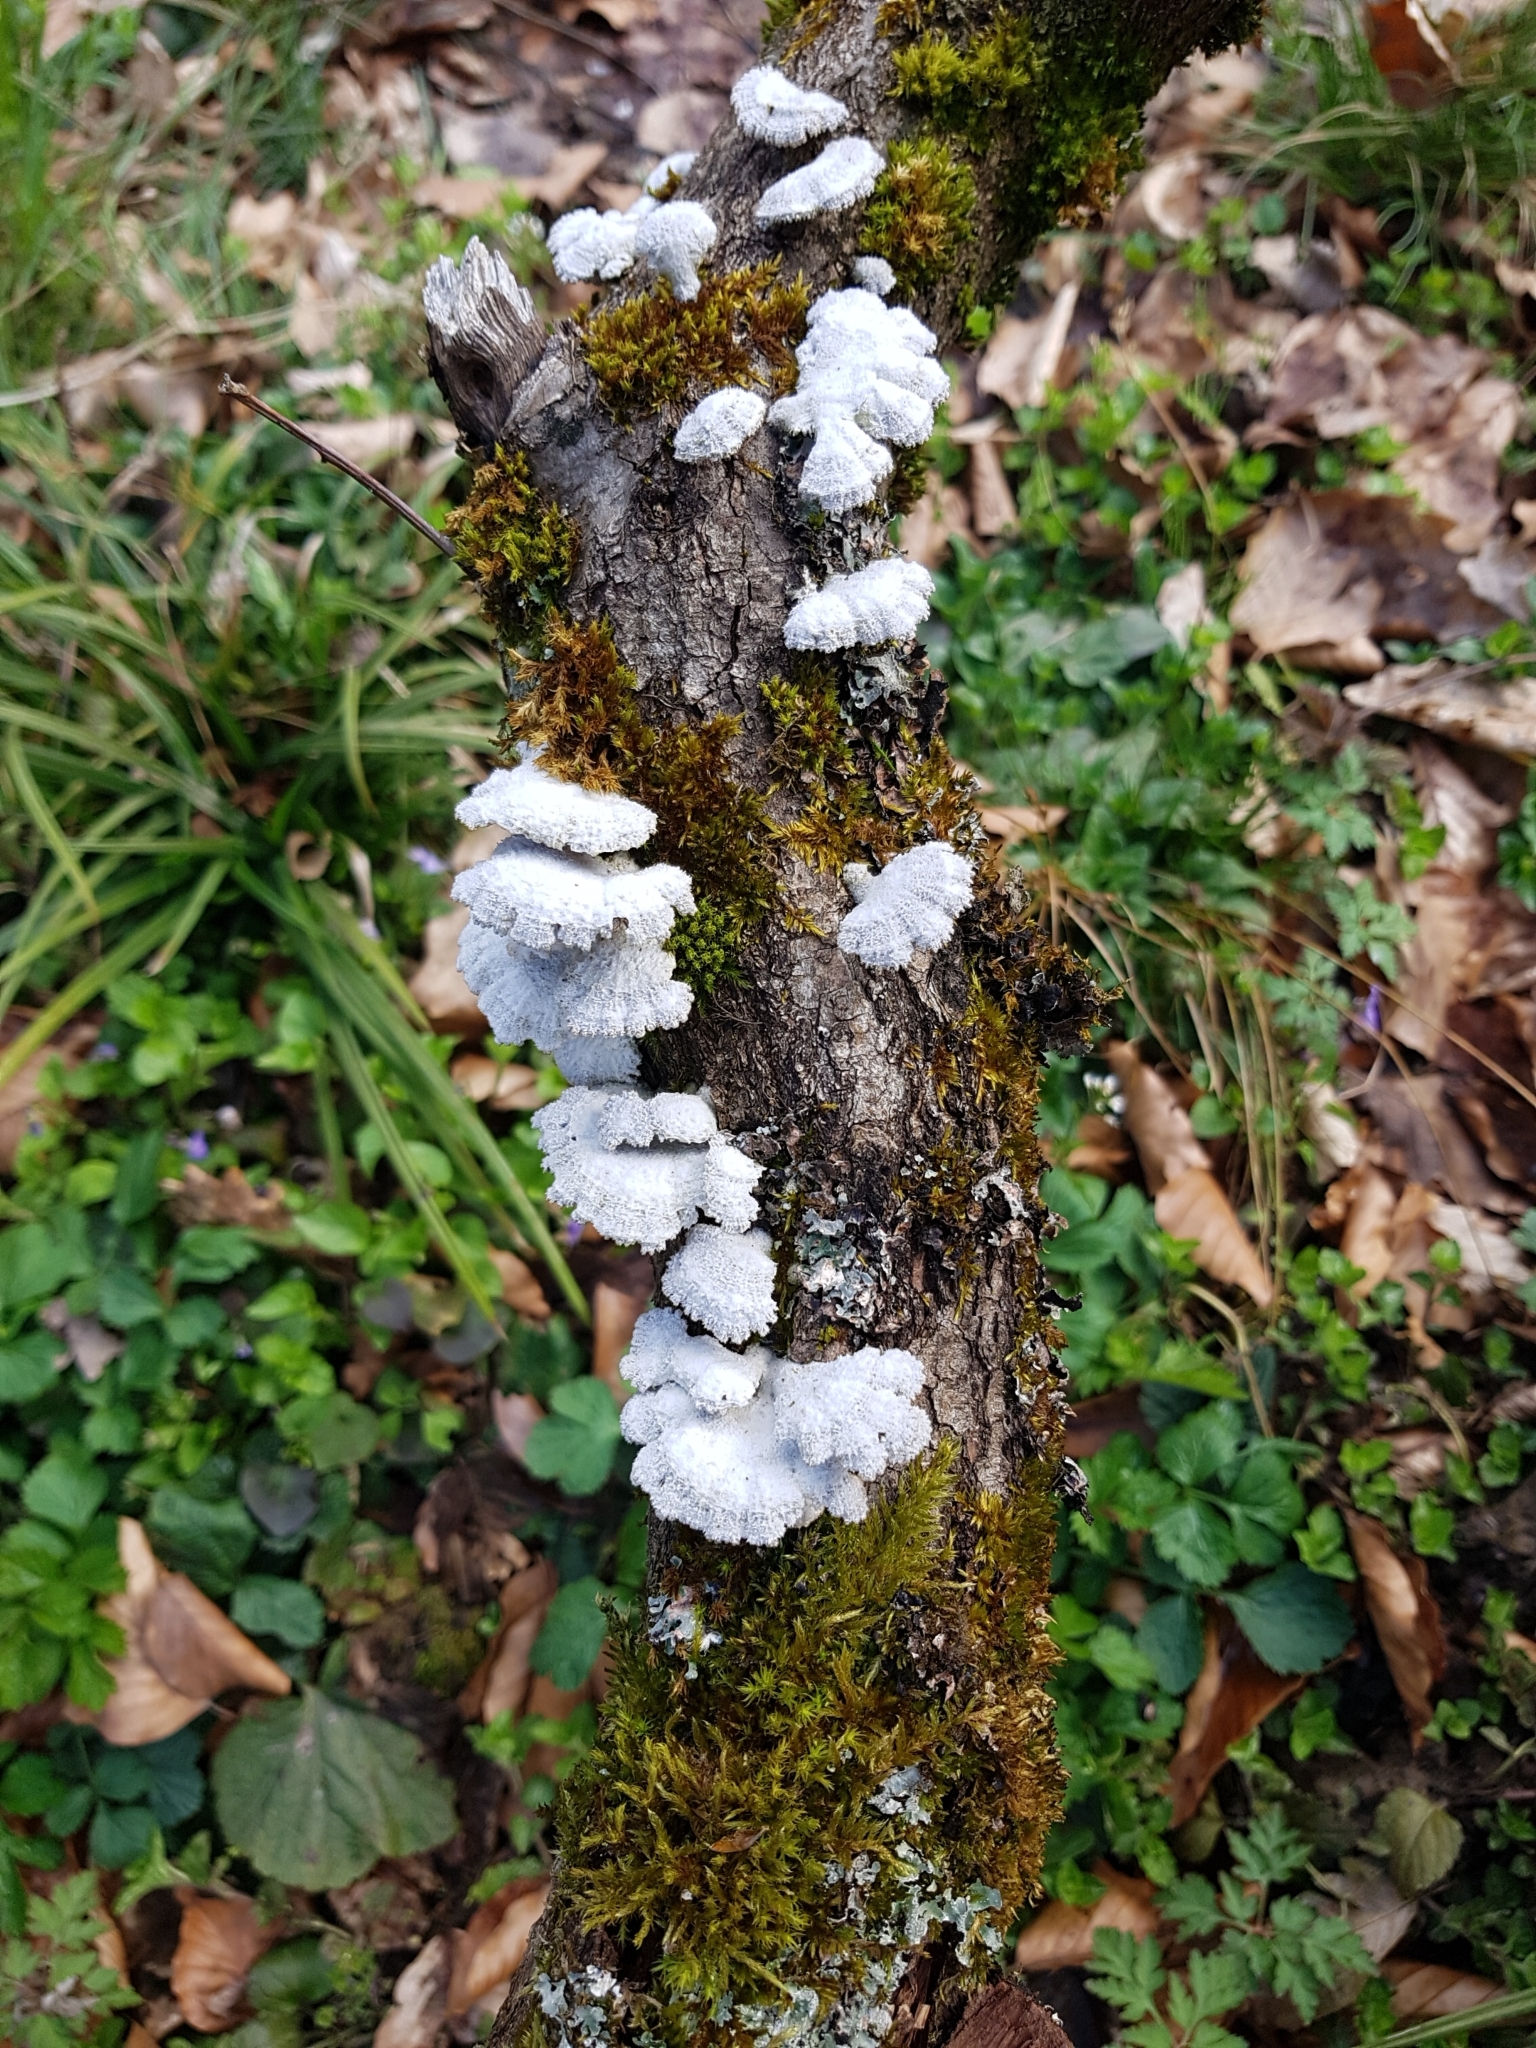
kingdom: Fungi
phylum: Basidiomycota
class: Agaricomycetes
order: Agaricales
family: Schizophyllaceae
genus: Schizophyllum
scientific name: Schizophyllum commune
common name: Common porecrust
